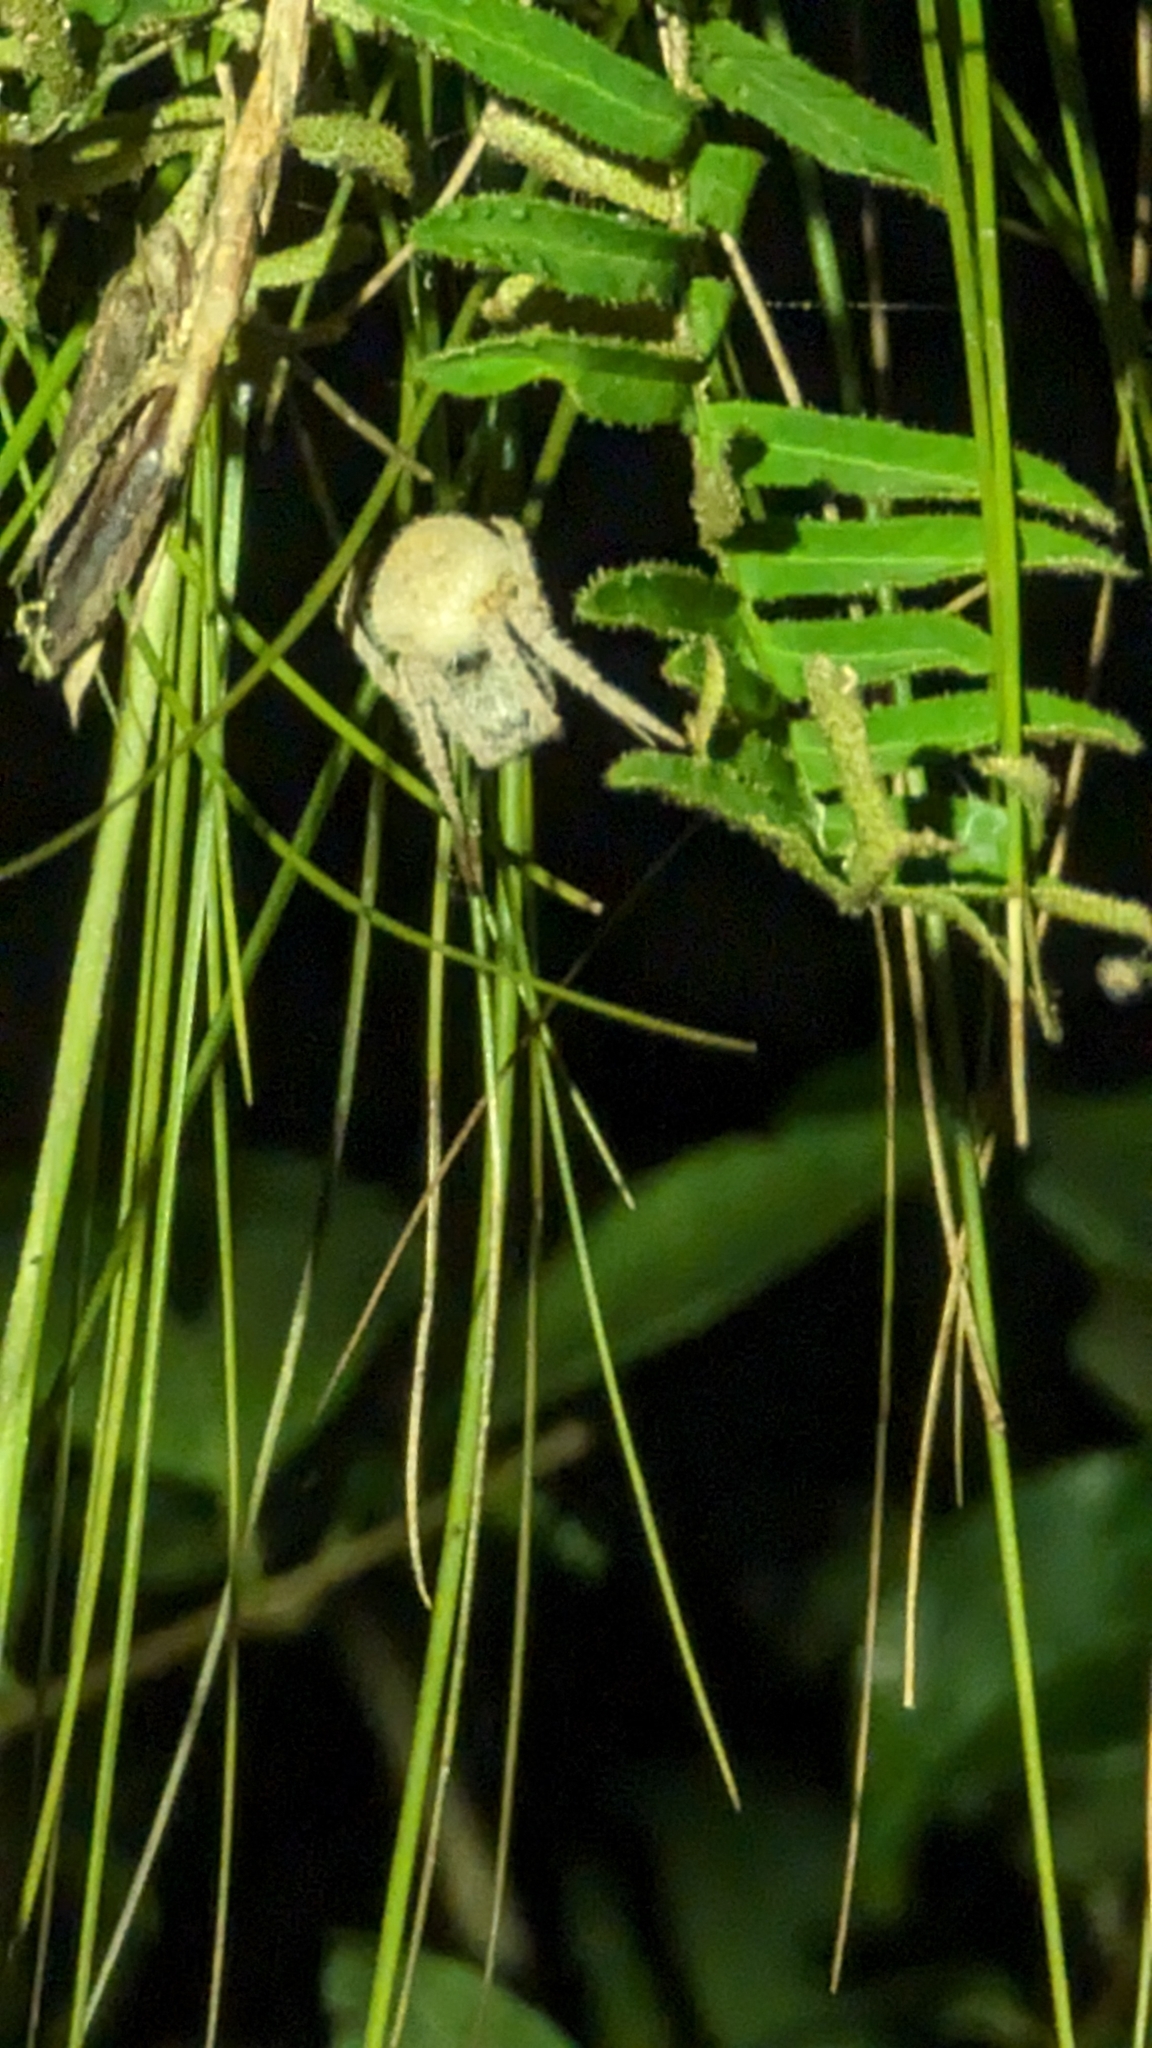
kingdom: Animalia
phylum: Arthropoda
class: Arachnida
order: Araneae
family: Araneidae
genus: Eriophora
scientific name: Eriophora ravilla
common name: Orb weavers
